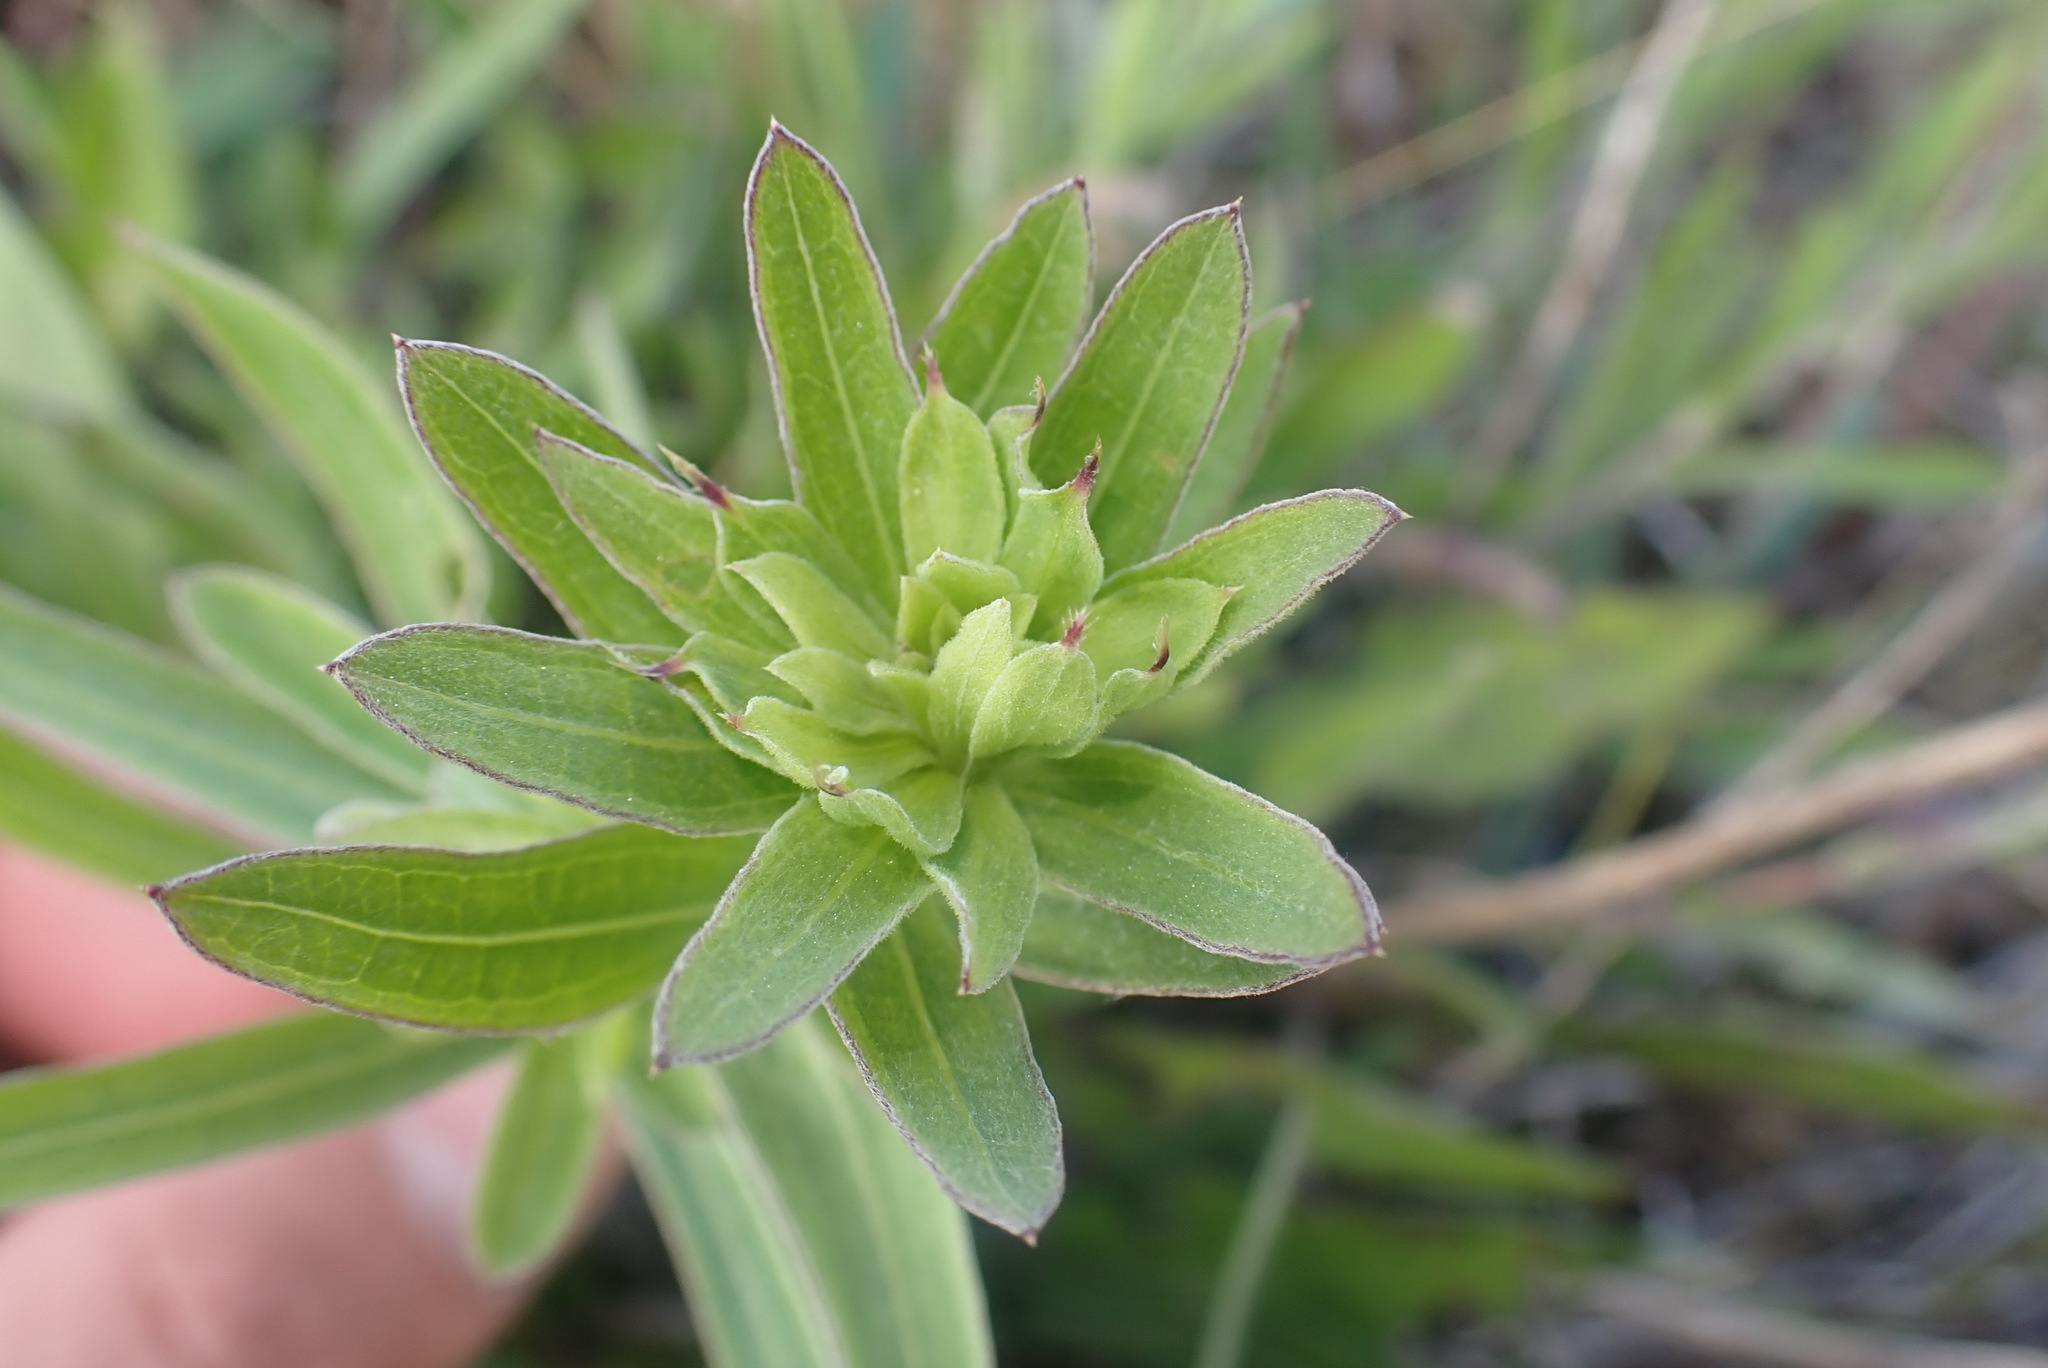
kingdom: Animalia
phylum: Arthropoda
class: Arachnida
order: Trombidiformes
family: Eriophyidae
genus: Aceria
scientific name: Aceria grandis
